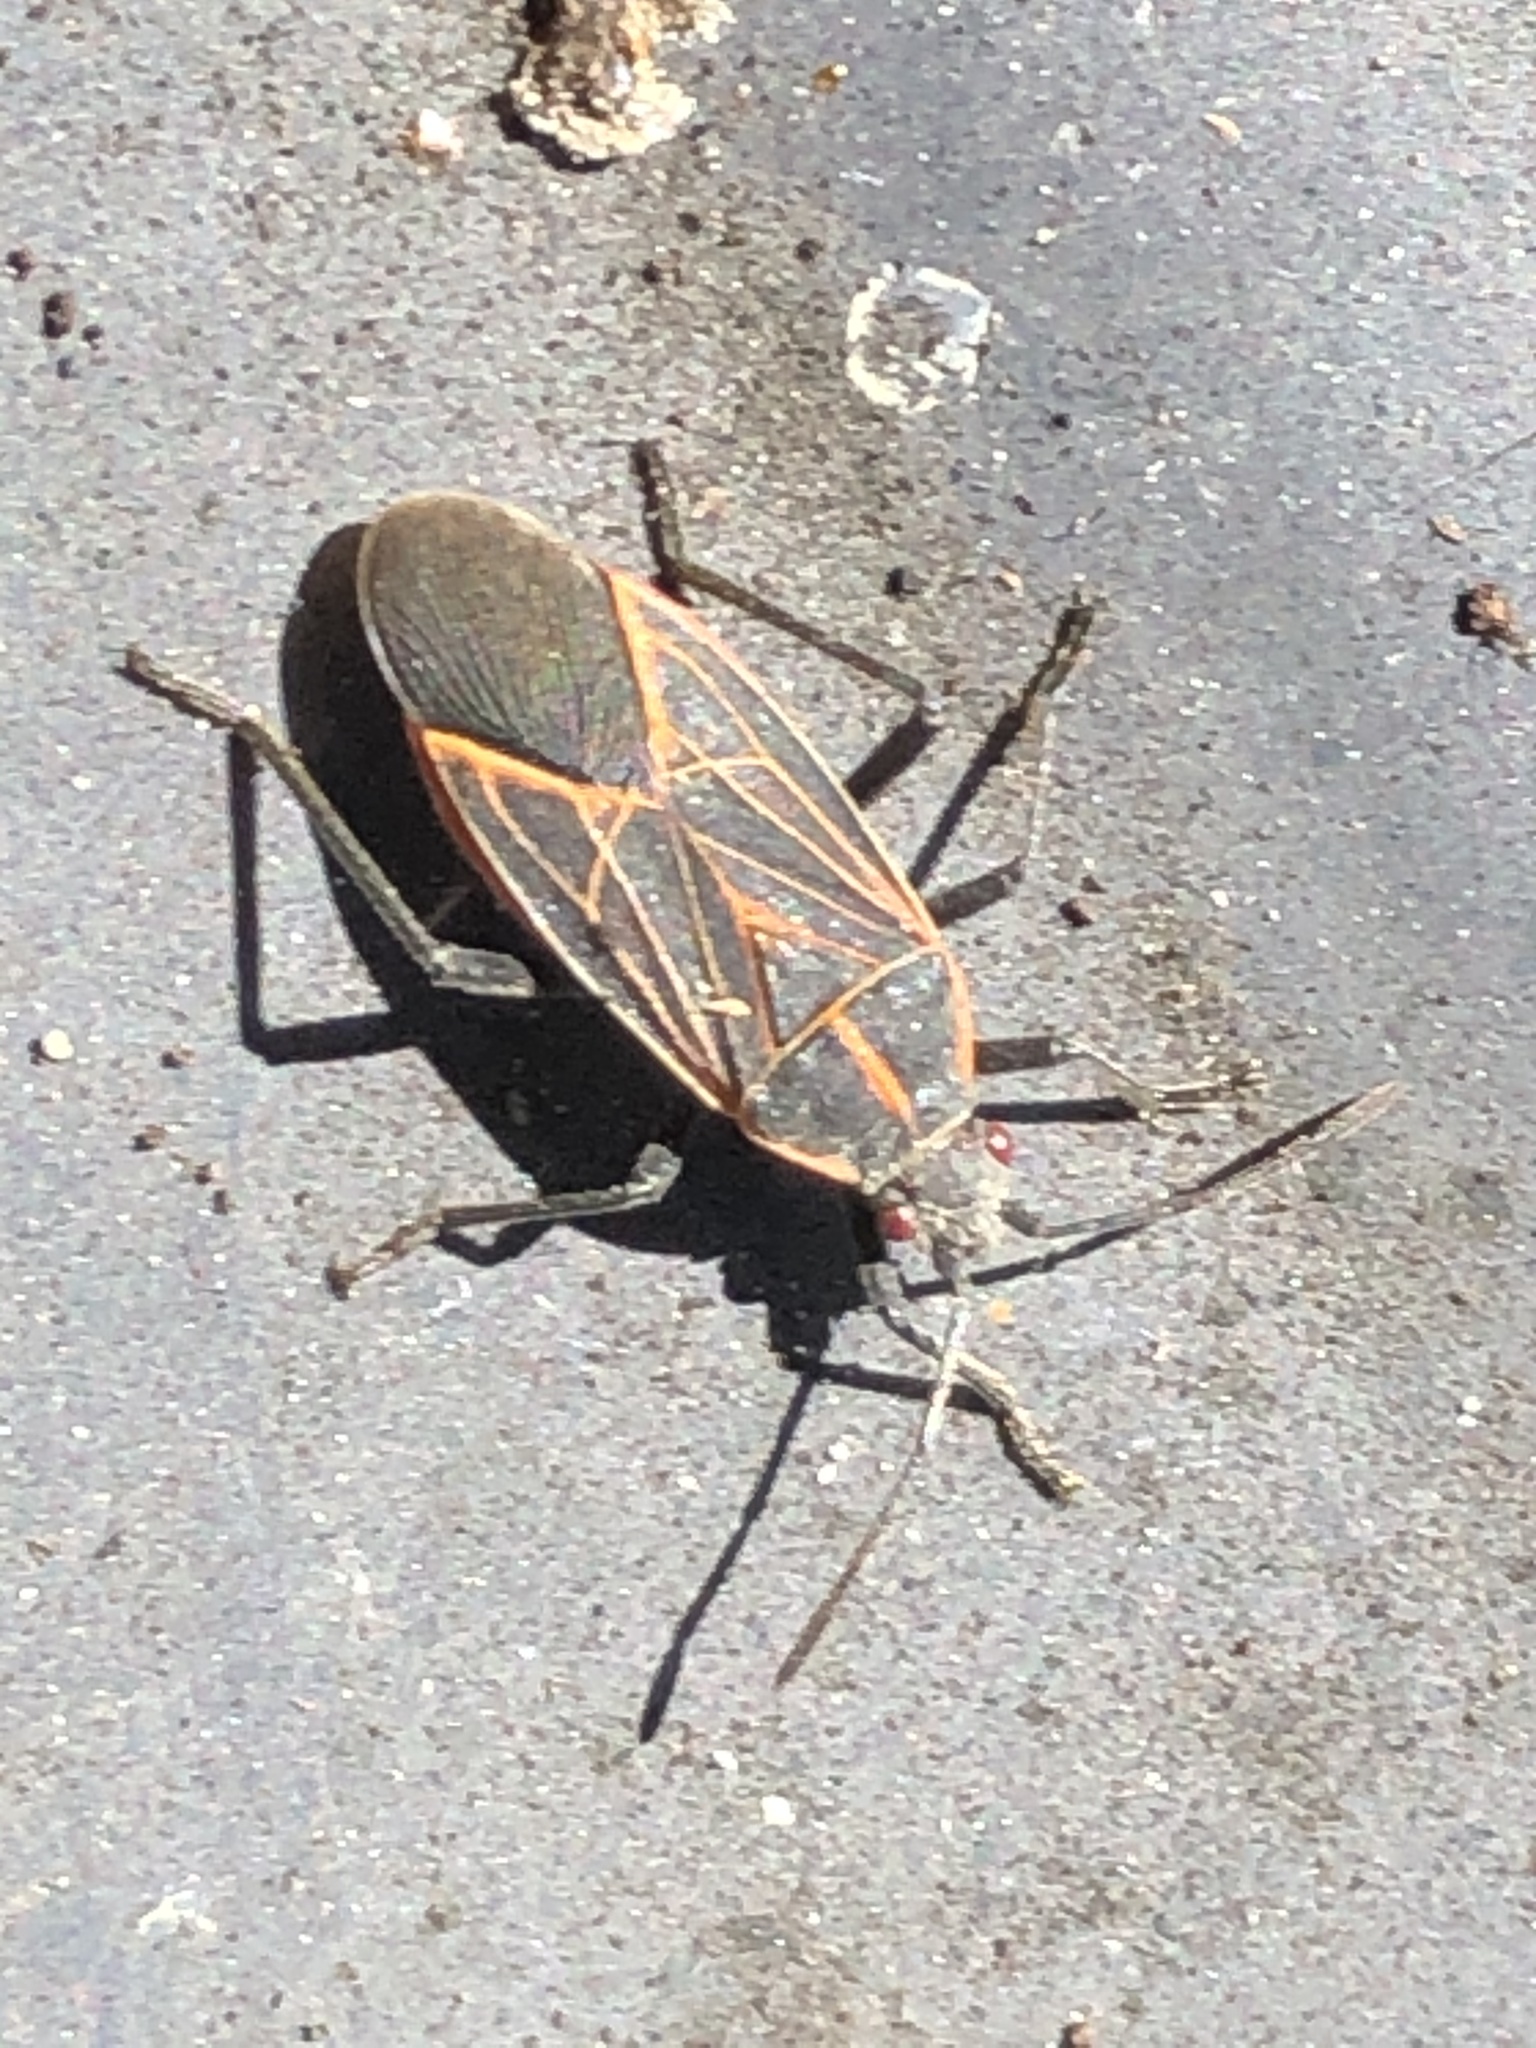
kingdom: Animalia
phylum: Arthropoda
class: Insecta
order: Hemiptera
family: Rhopalidae
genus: Boisea
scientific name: Boisea rubrolineata
